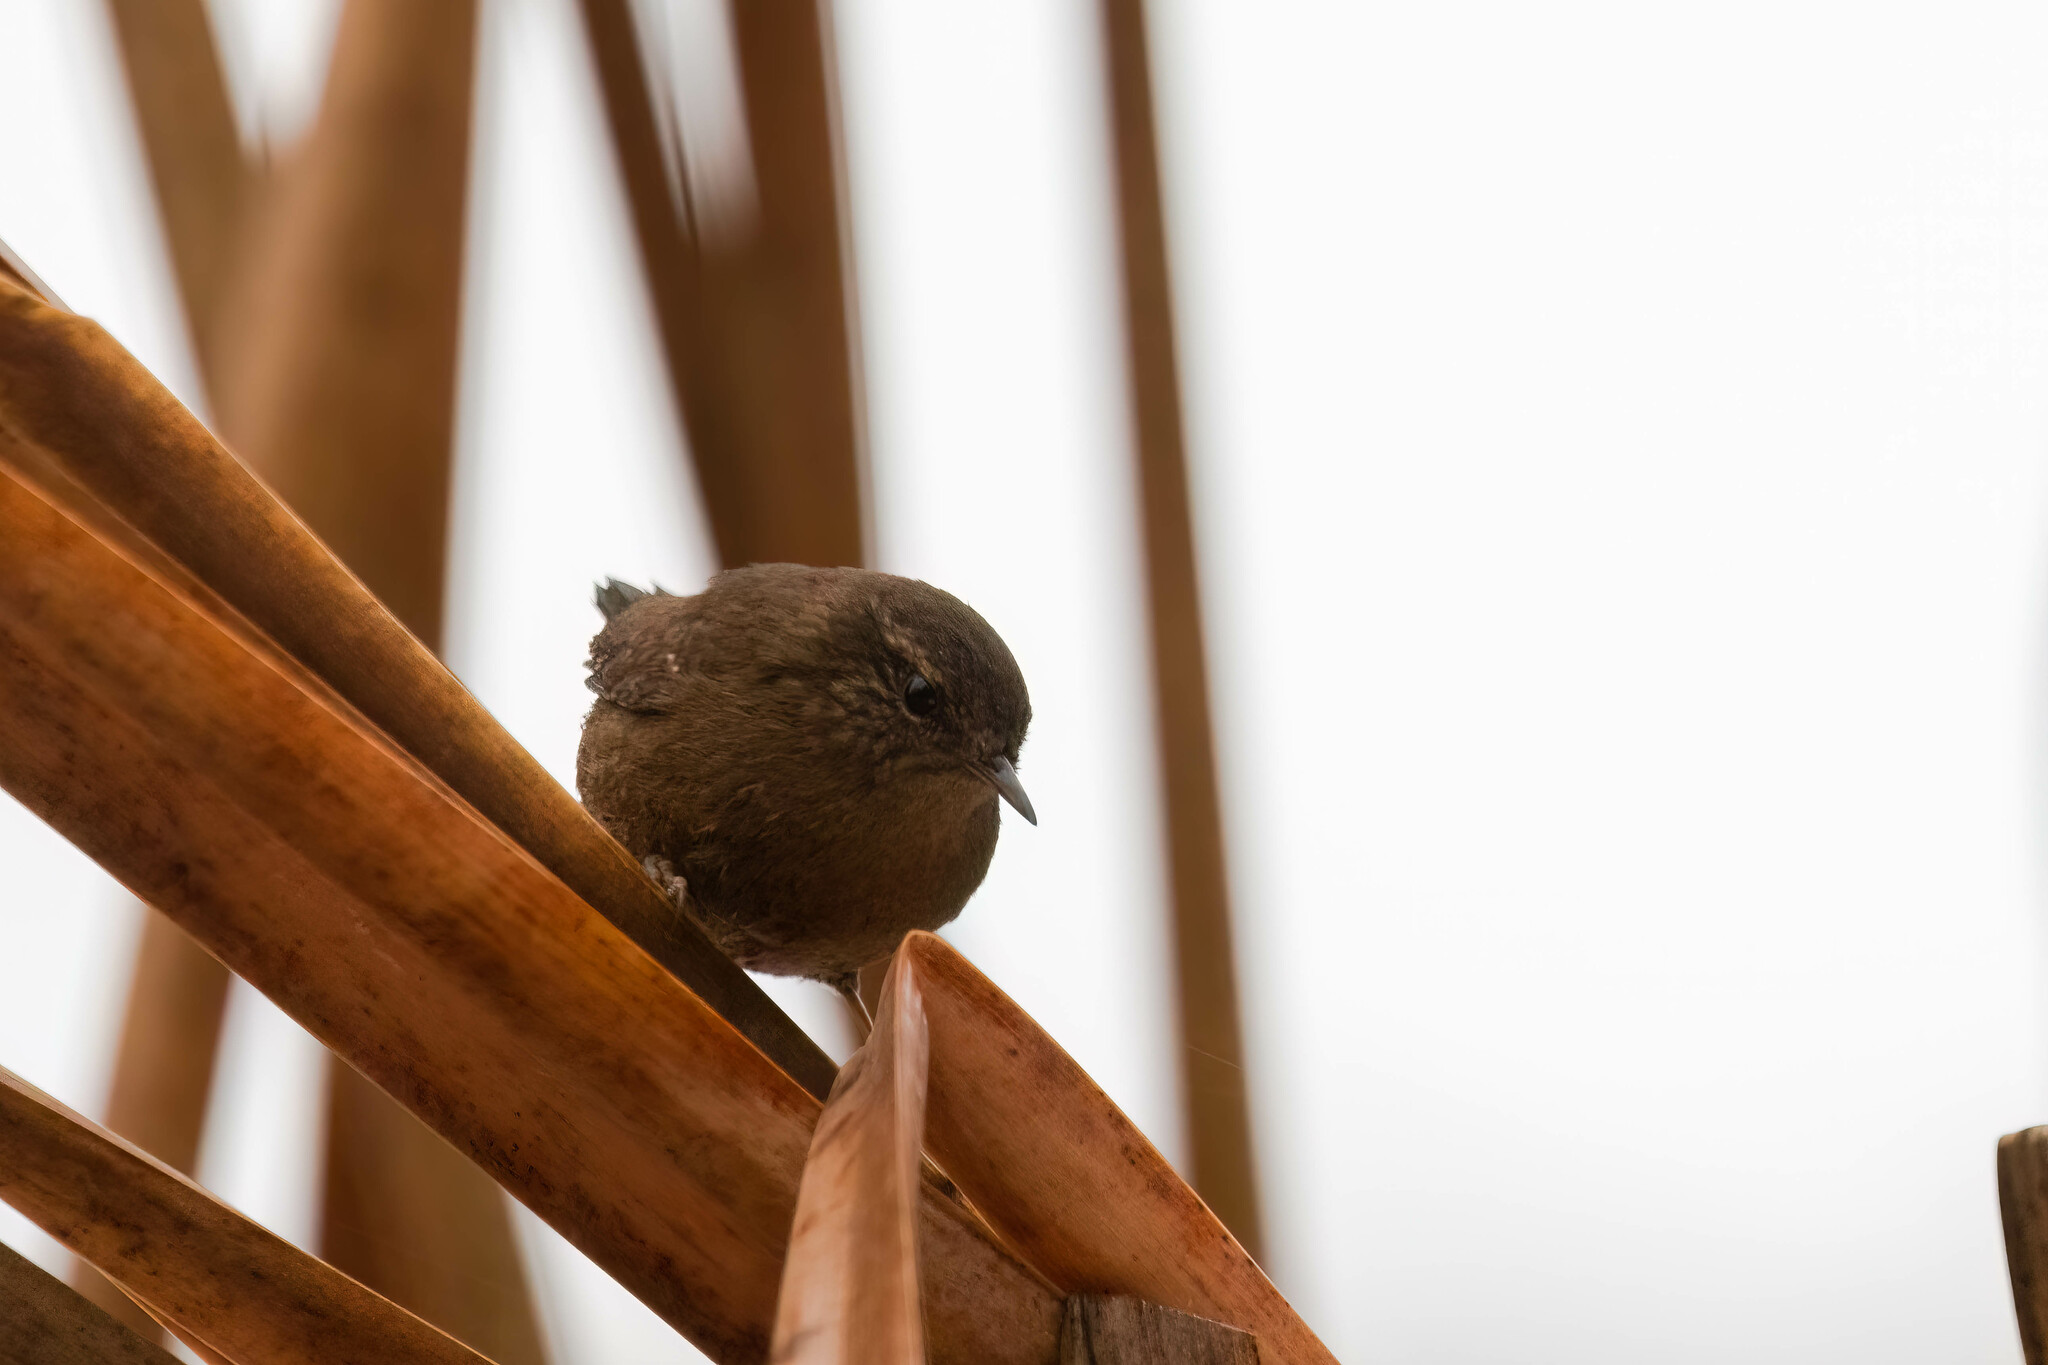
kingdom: Animalia
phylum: Chordata
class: Aves
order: Passeriformes
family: Troglodytidae
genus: Troglodytes
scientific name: Troglodytes pacificus
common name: Pacific wren
